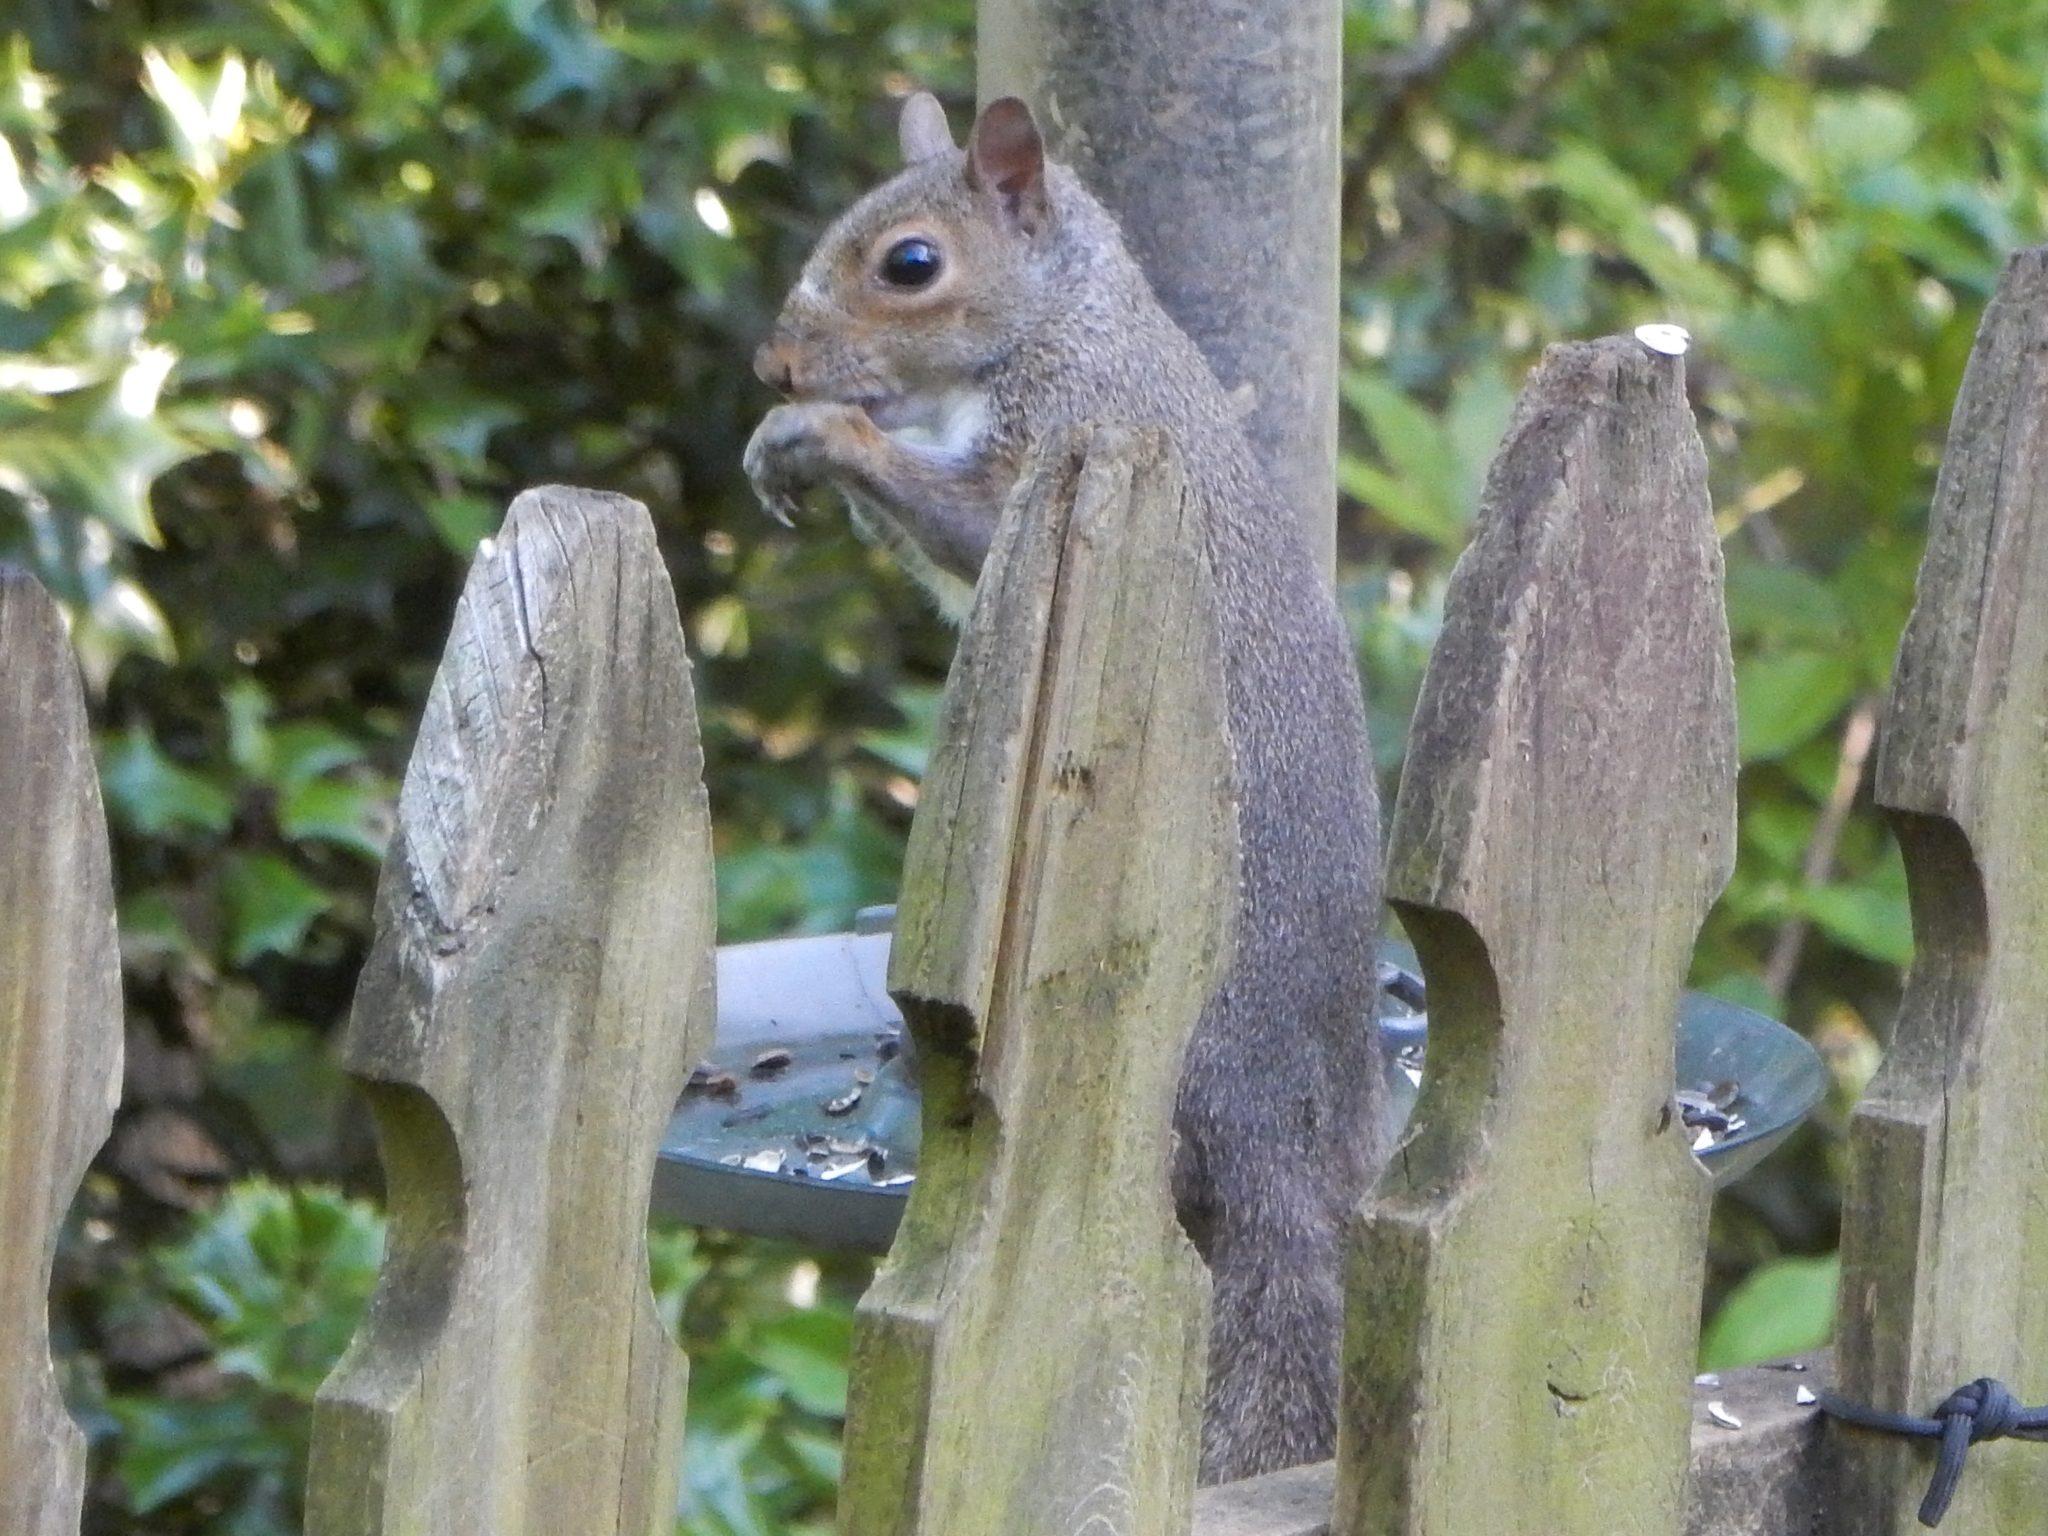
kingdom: Animalia
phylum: Chordata
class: Mammalia
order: Rodentia
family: Sciuridae
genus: Sciurus
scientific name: Sciurus carolinensis
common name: Eastern gray squirrel
